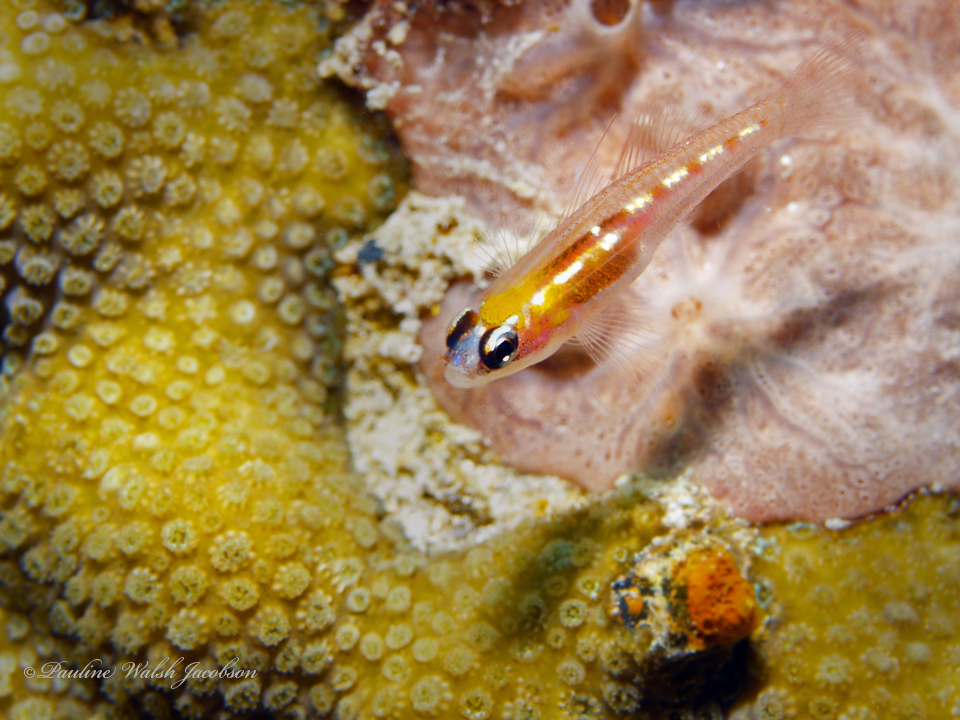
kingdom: Animalia
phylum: Chordata
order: Perciformes
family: Gobiidae
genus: Coryphopterus
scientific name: Coryphopterus personatus
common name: Masked goby
